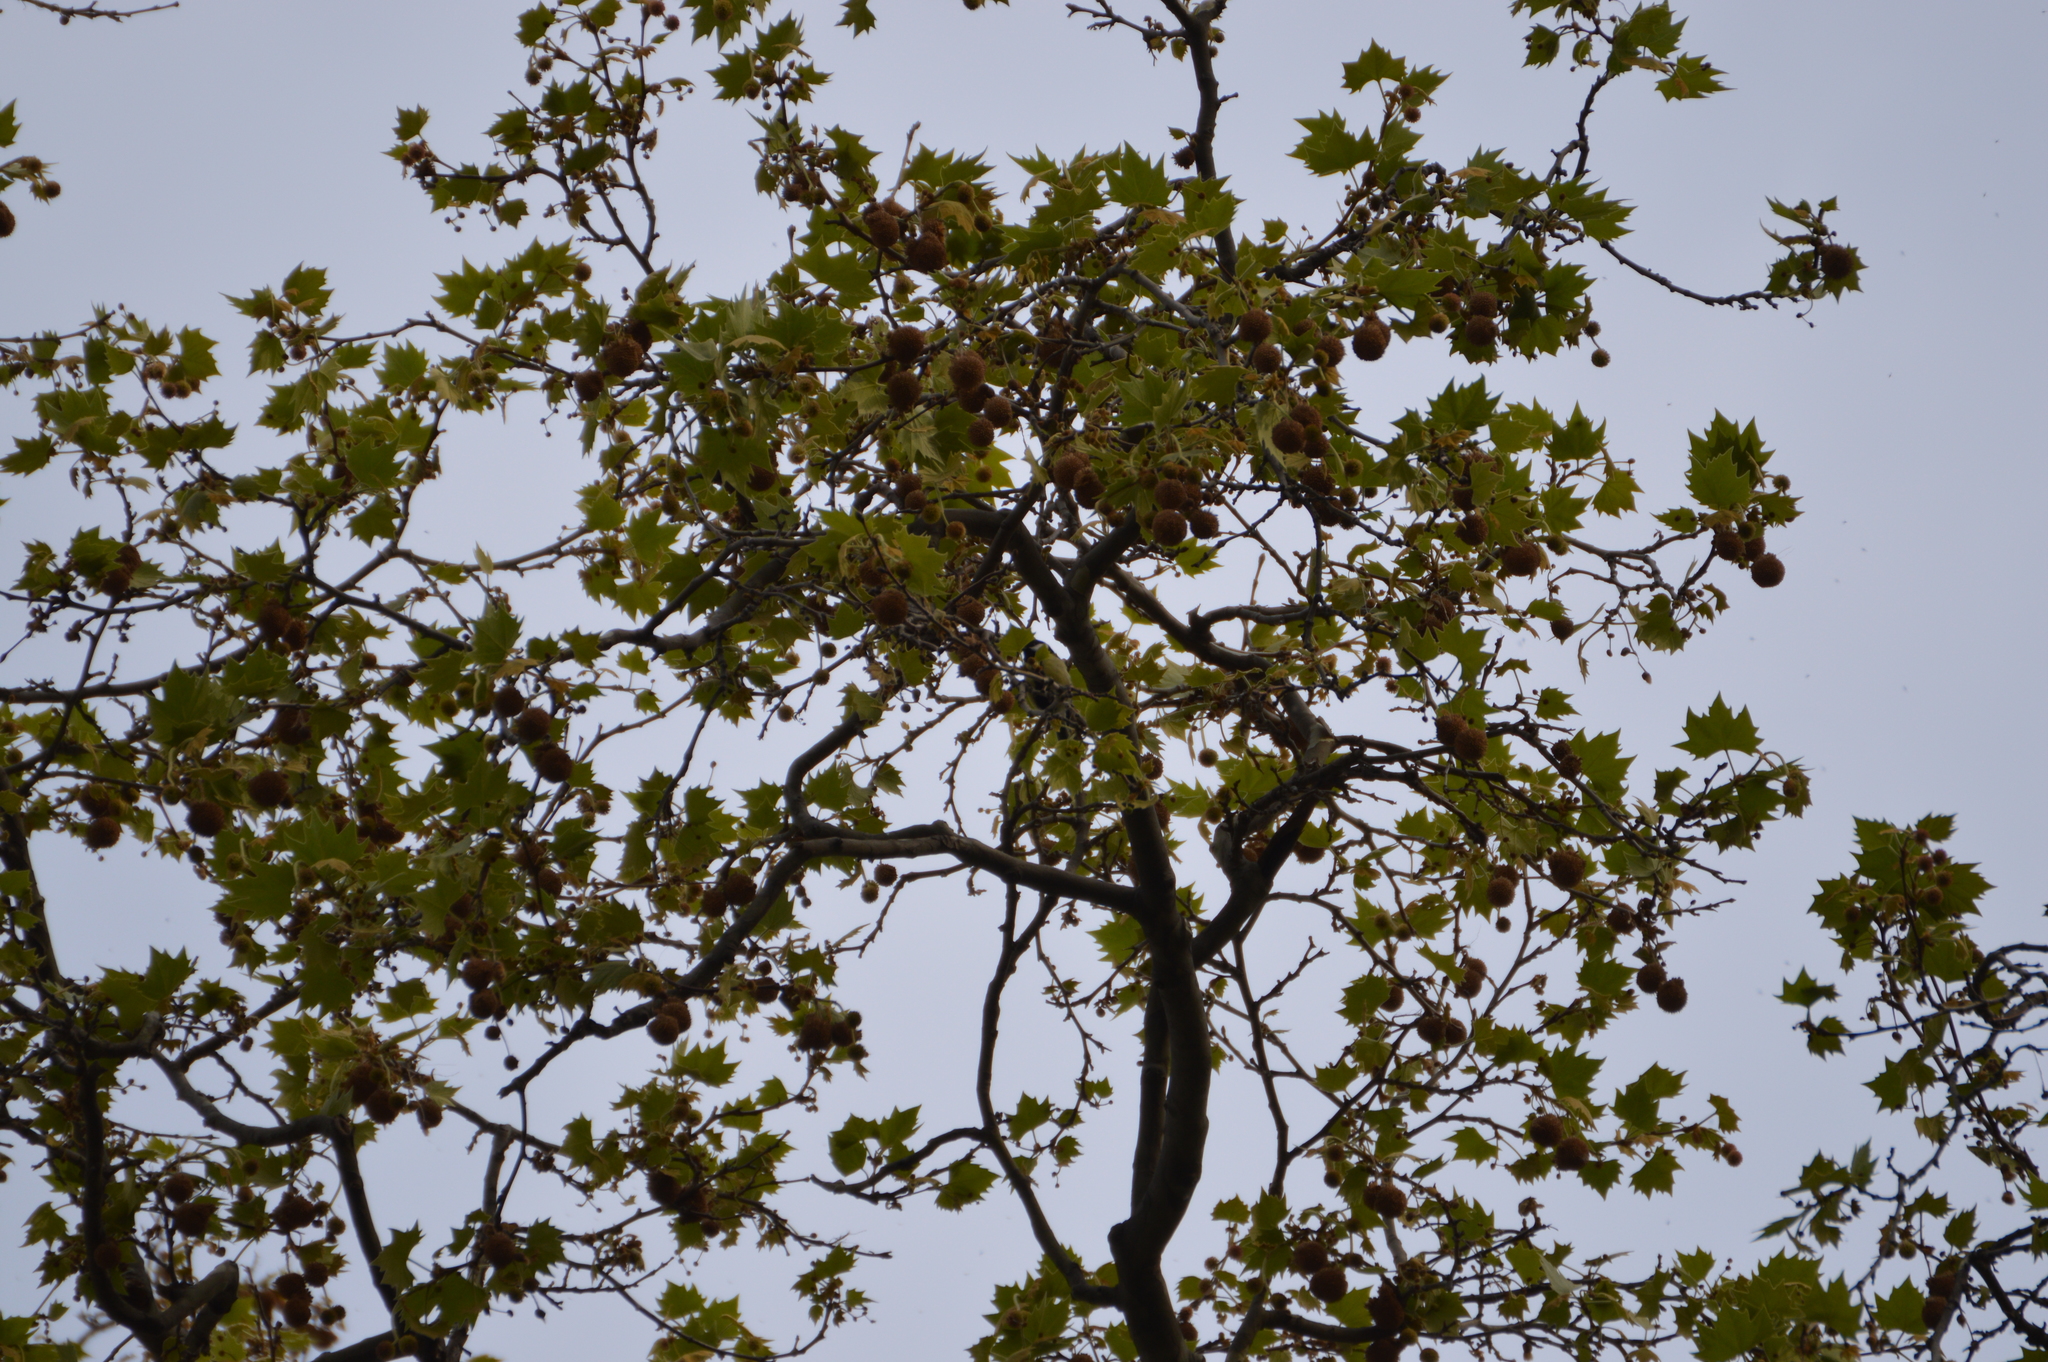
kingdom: Animalia
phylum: Chordata
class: Aves
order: Passeriformes
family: Paridae
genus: Parus
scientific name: Parus major
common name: Great tit
